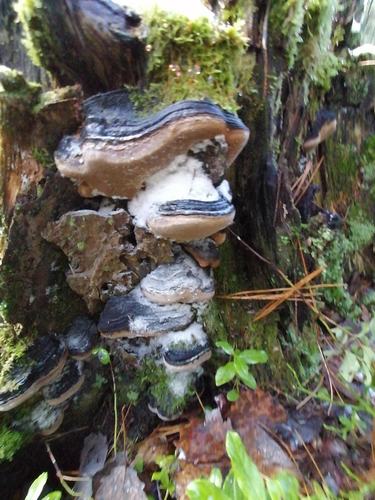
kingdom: Fungi
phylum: Basidiomycota
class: Agaricomycetes
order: Hymenochaetales
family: Hymenochaetaceae
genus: Phellinus
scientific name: Phellinus igniarius
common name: Willow bracket
